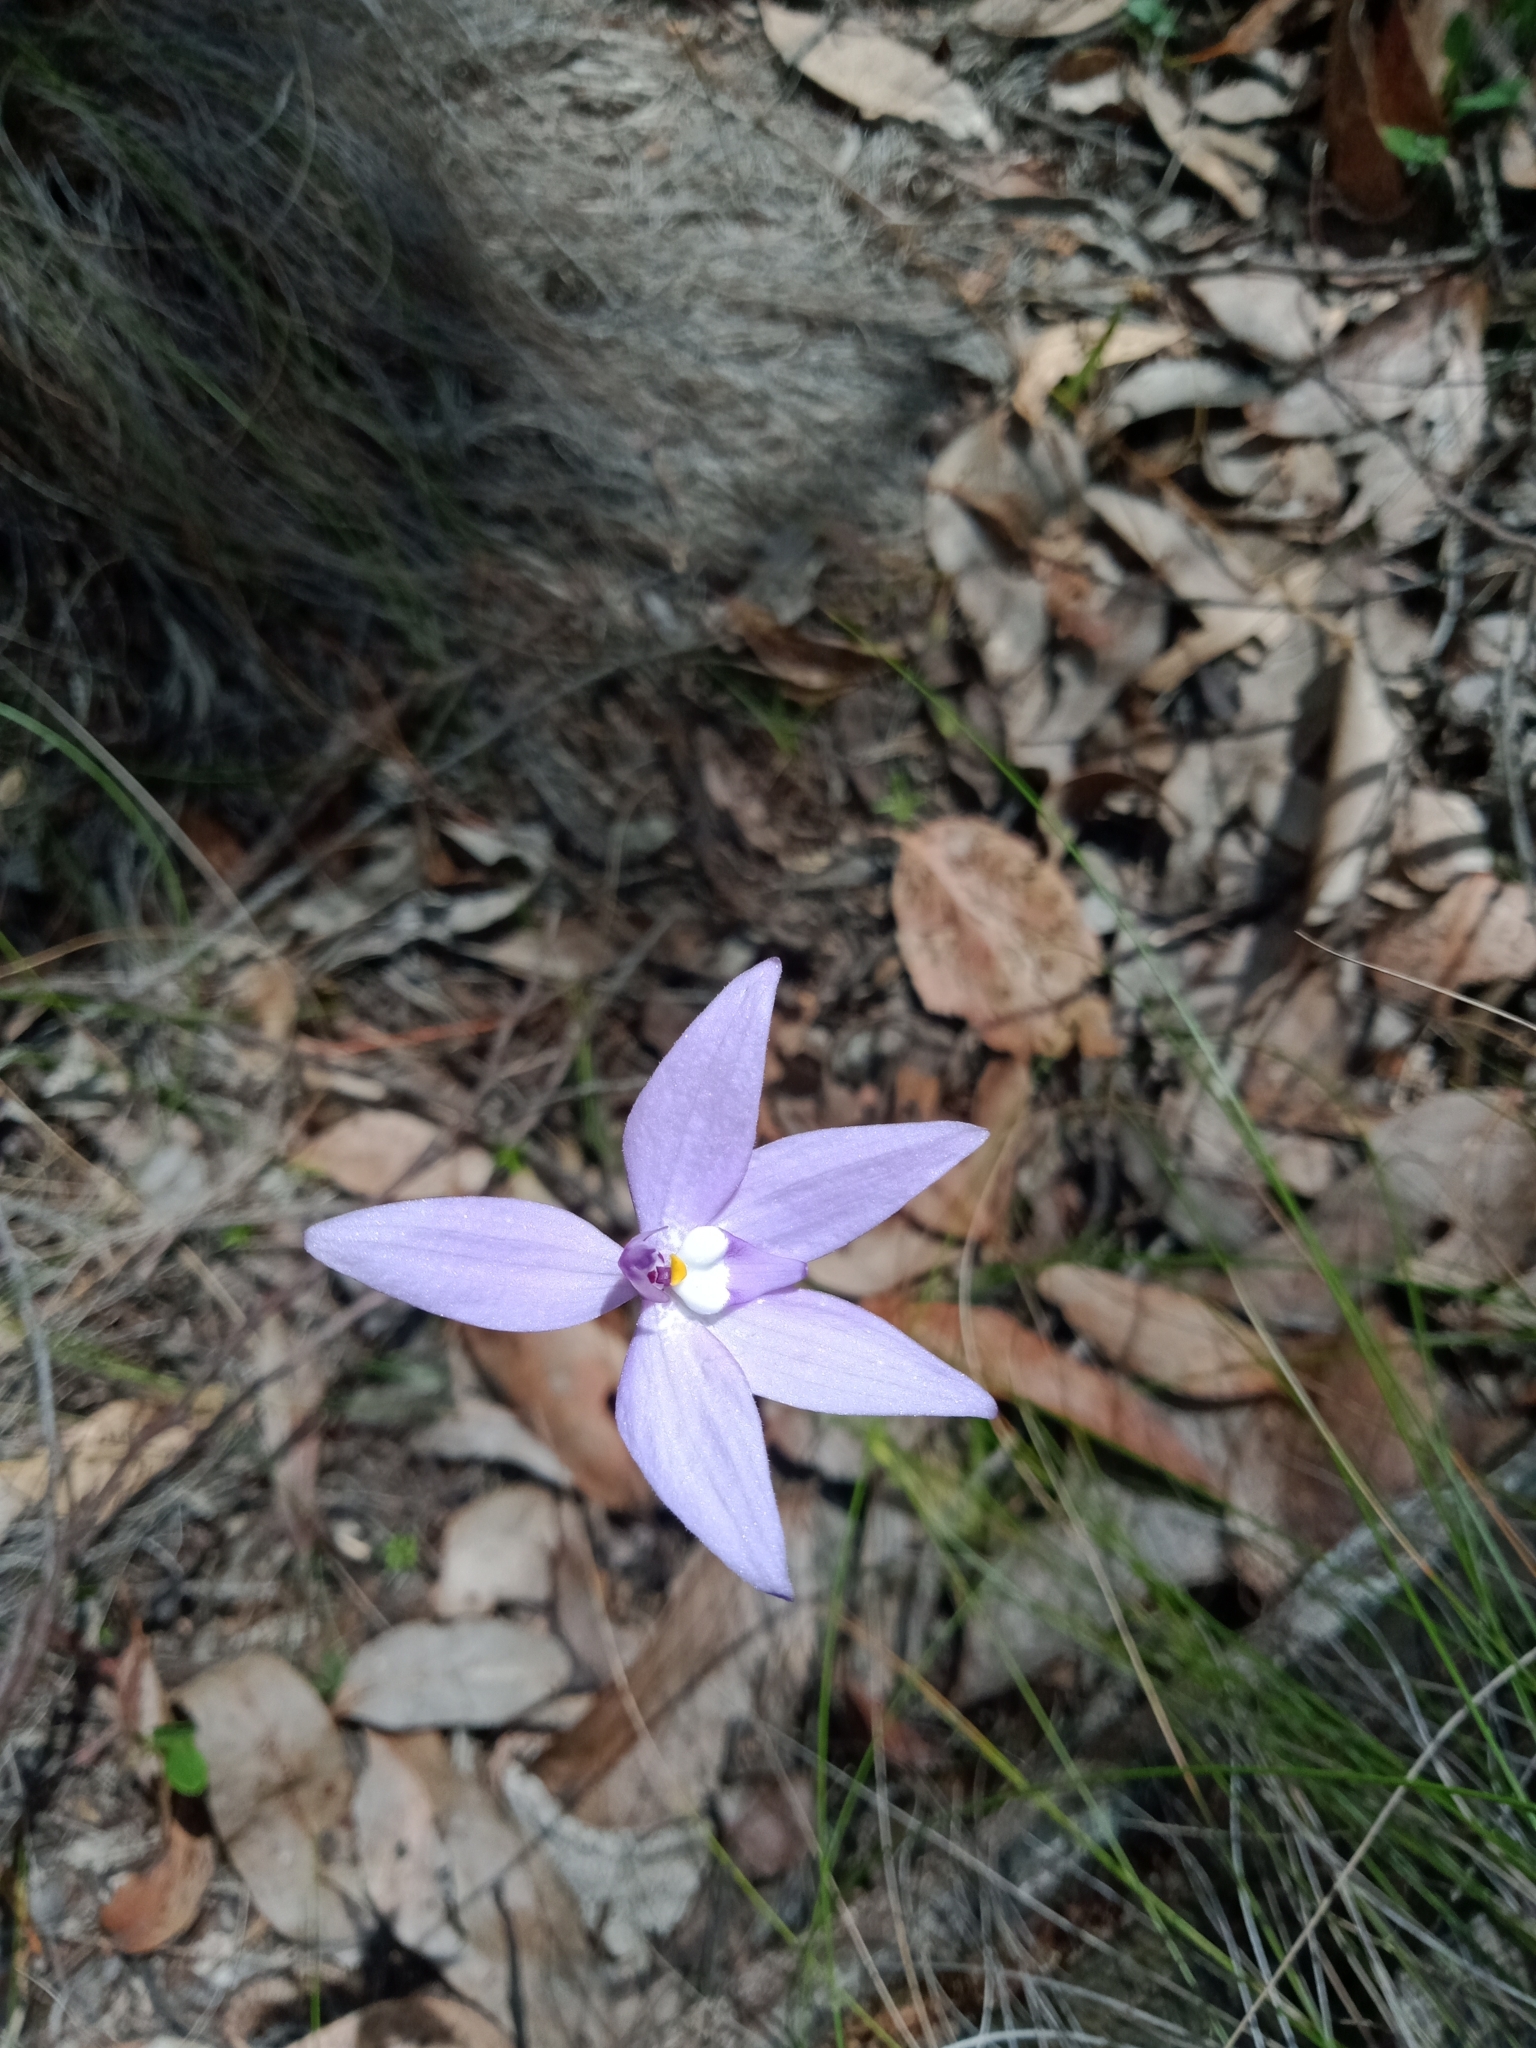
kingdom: Plantae
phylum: Tracheophyta
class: Liliopsida
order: Asparagales
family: Orchidaceae
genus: Caladenia
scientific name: Caladenia major
